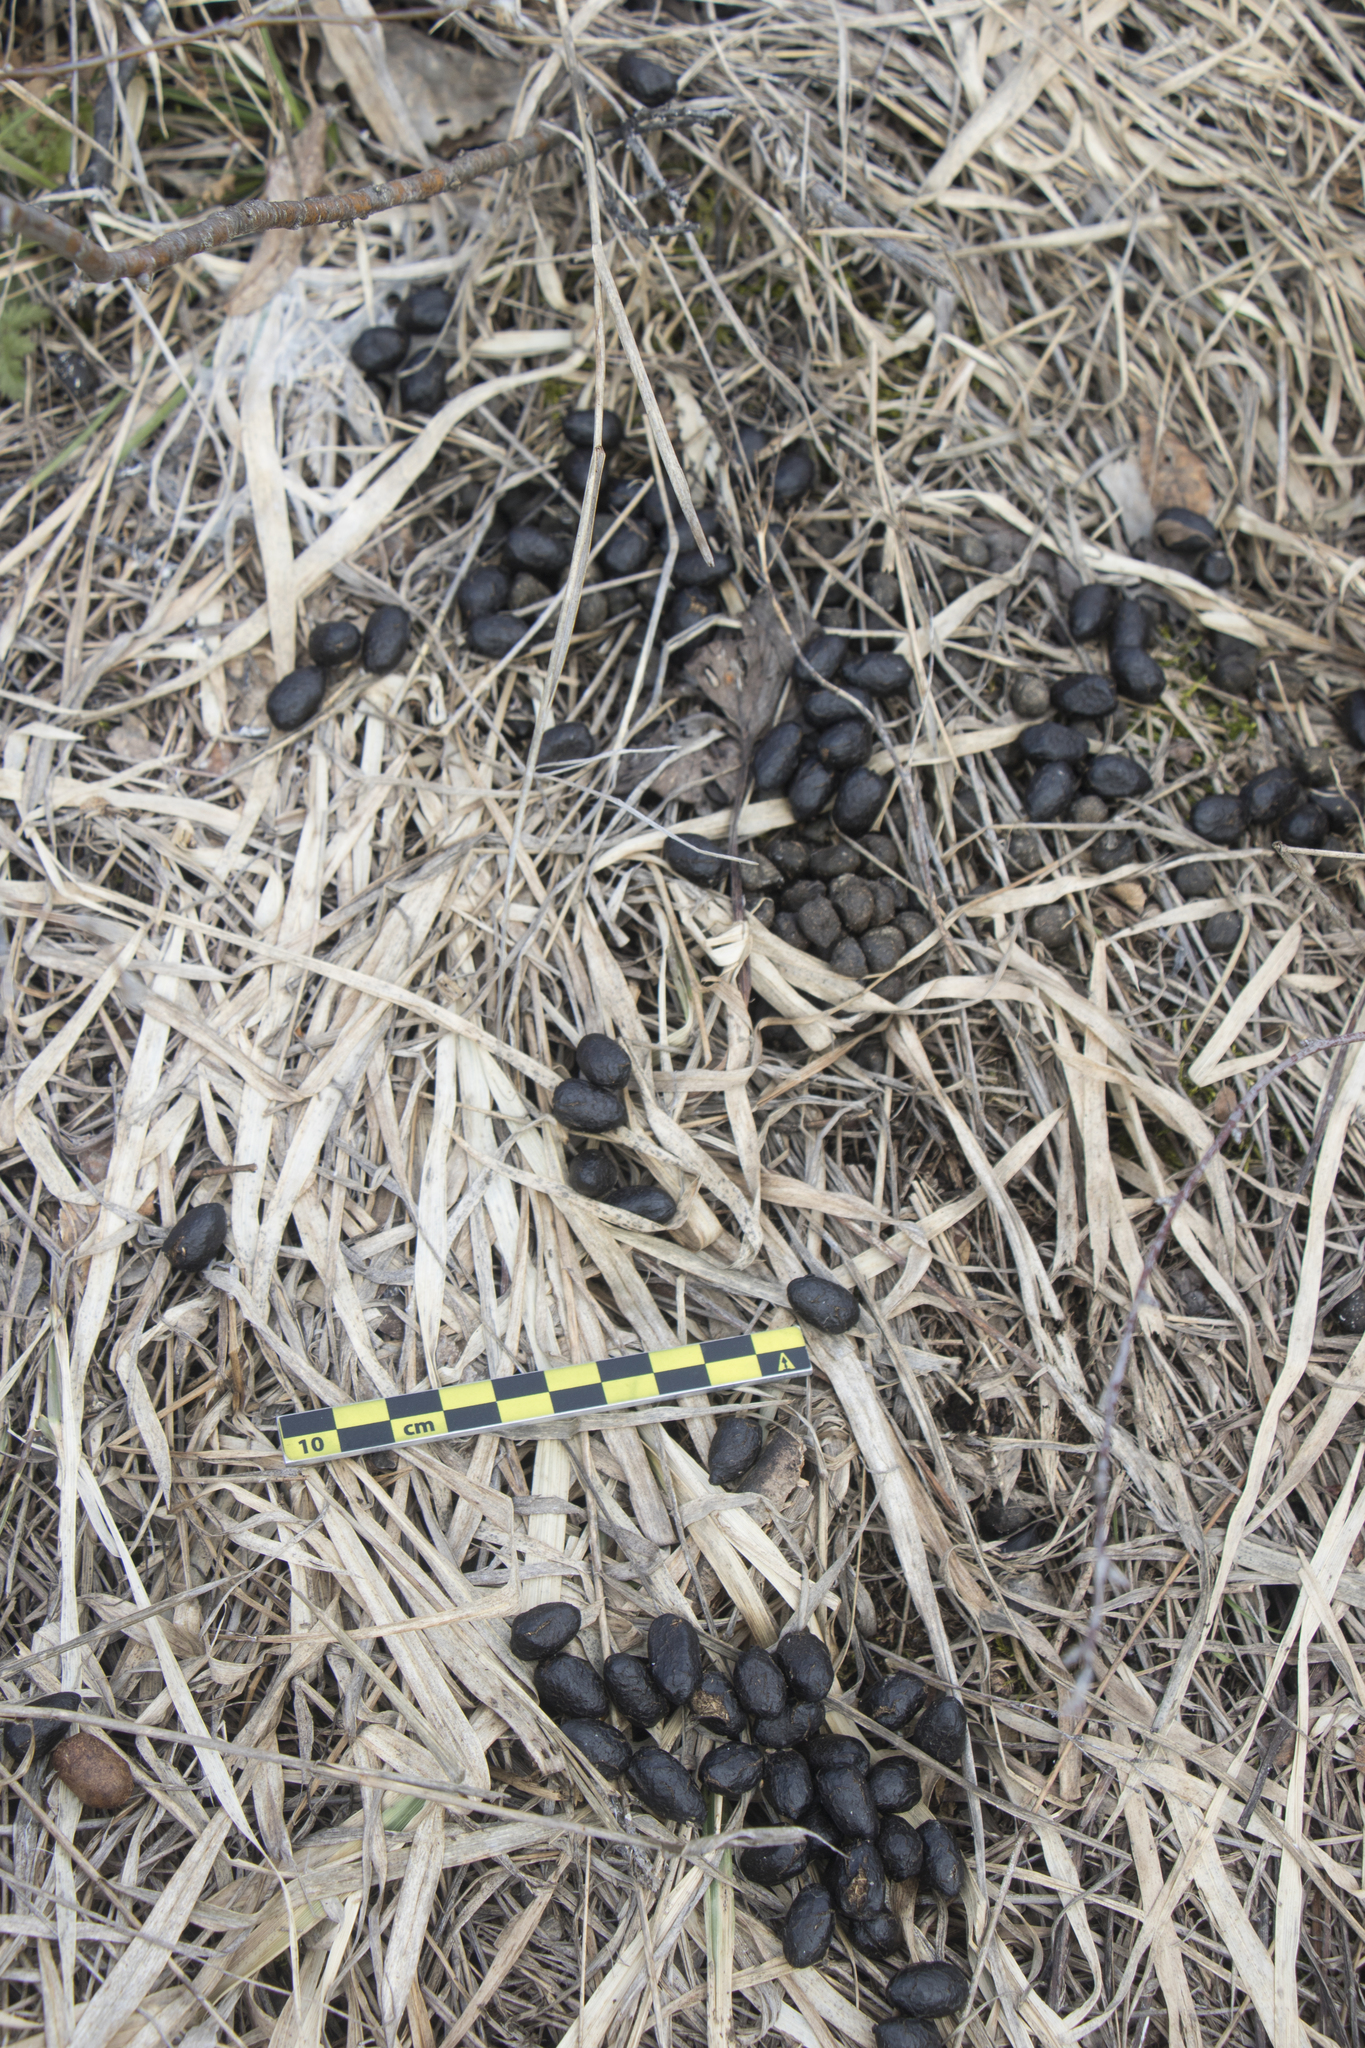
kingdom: Animalia
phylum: Chordata
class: Mammalia
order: Artiodactyla
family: Cervidae
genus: Capreolus
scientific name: Capreolus pygargus
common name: Siberian roe
